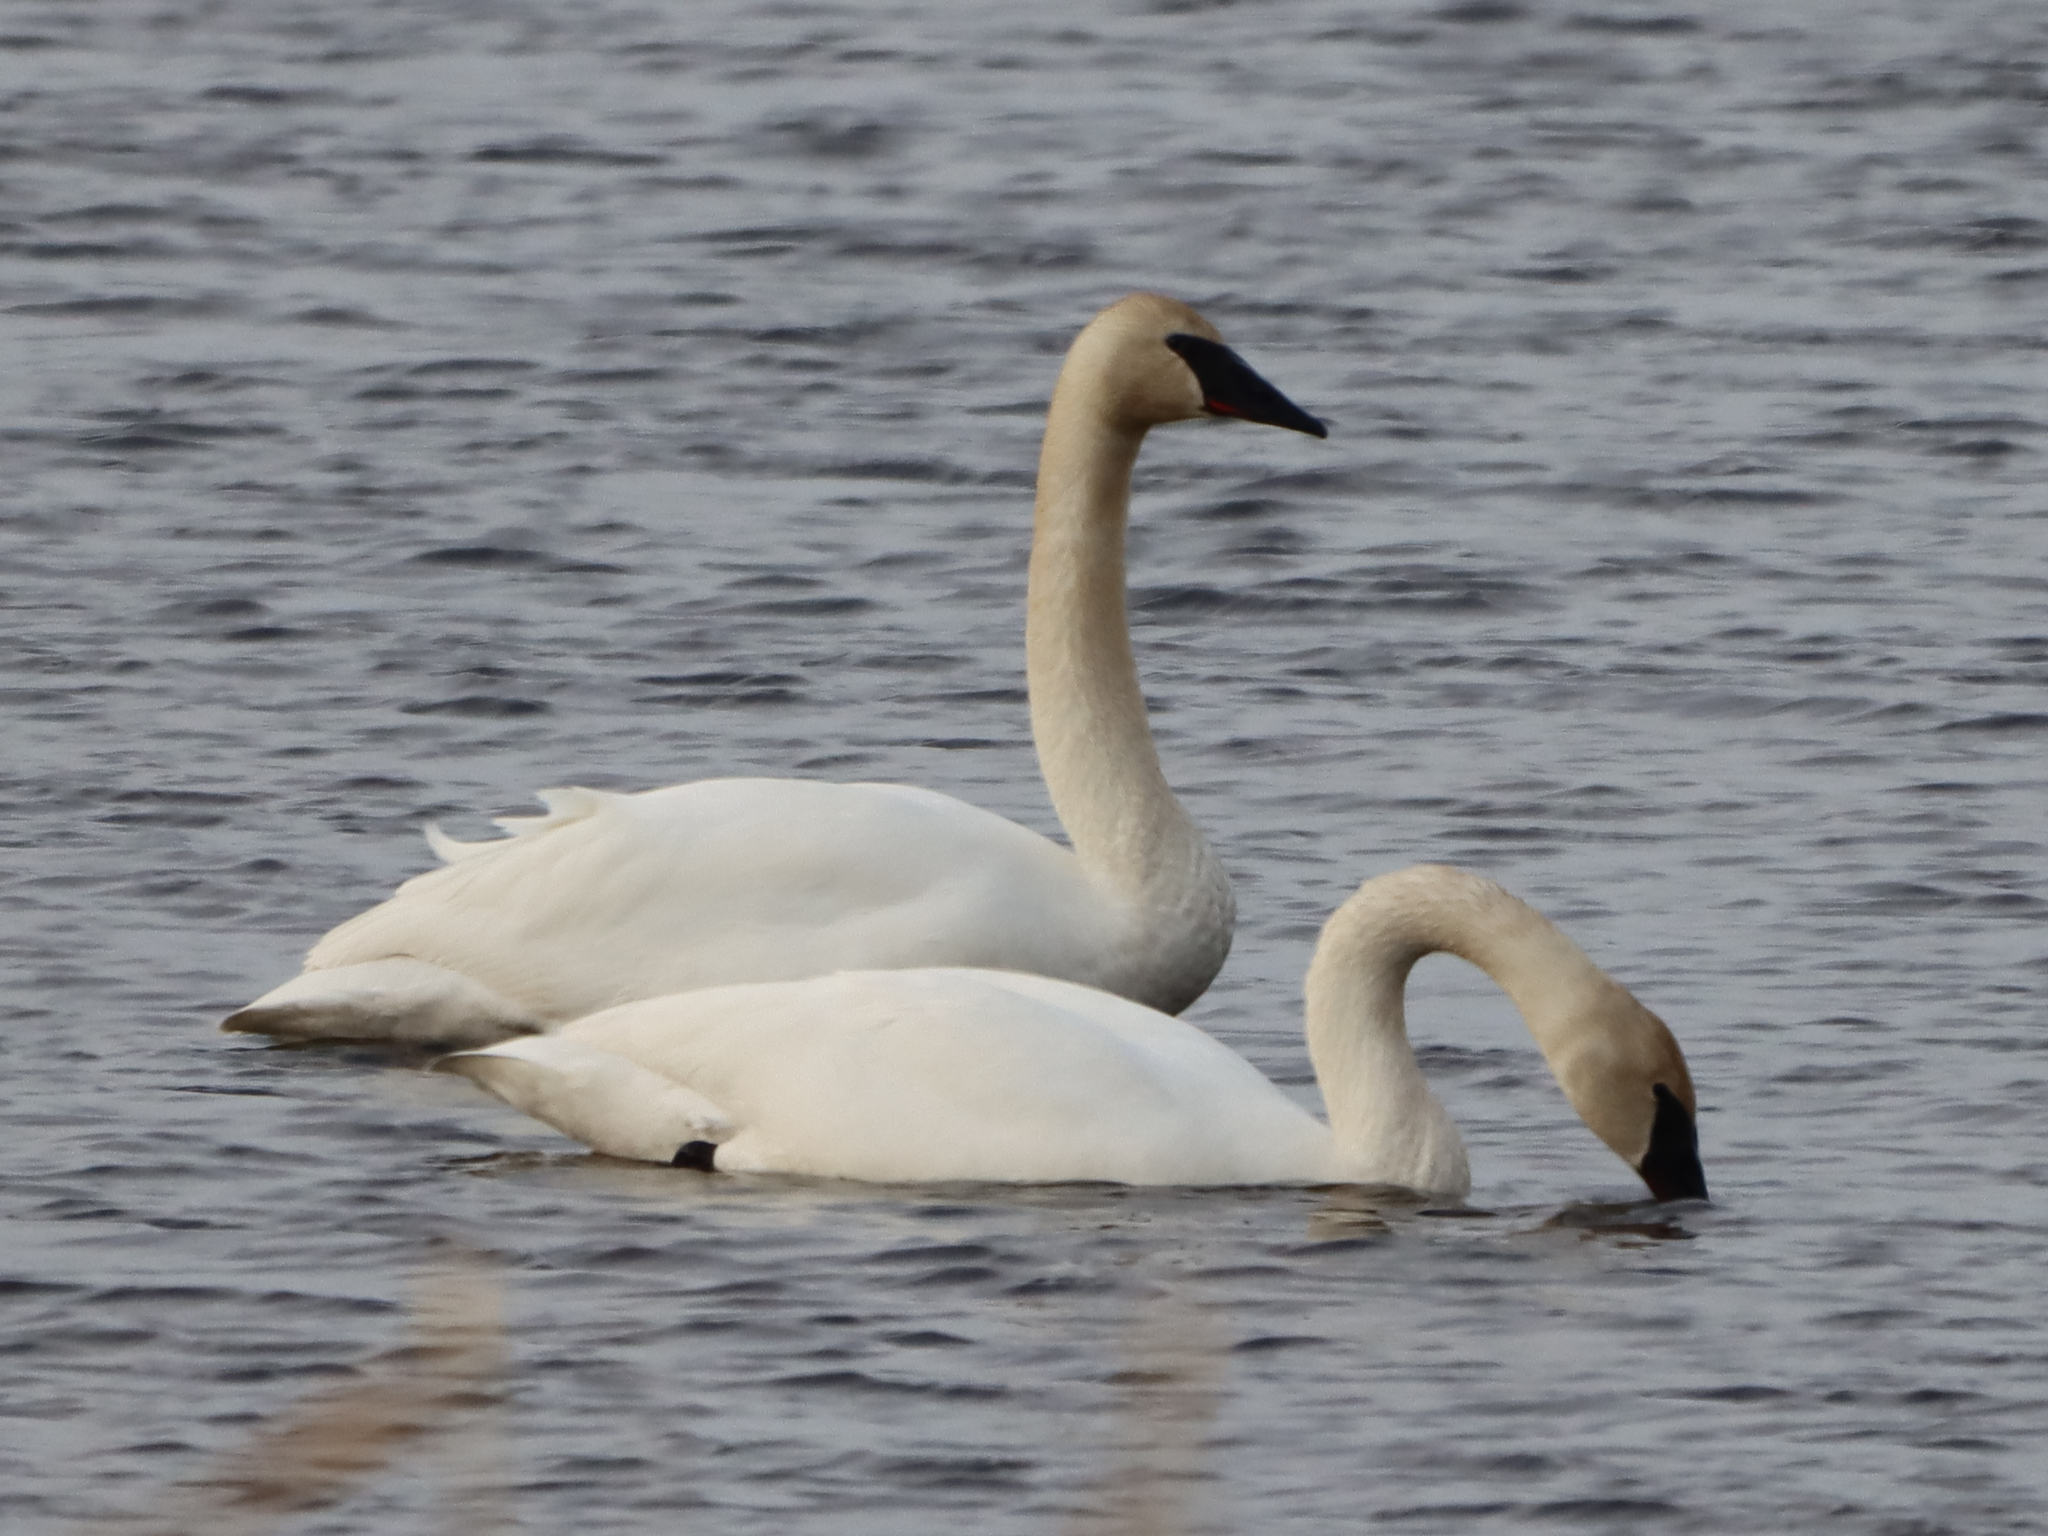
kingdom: Animalia
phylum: Chordata
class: Aves
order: Anseriformes
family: Anatidae
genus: Cygnus
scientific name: Cygnus buccinator
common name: Trumpeter swan
